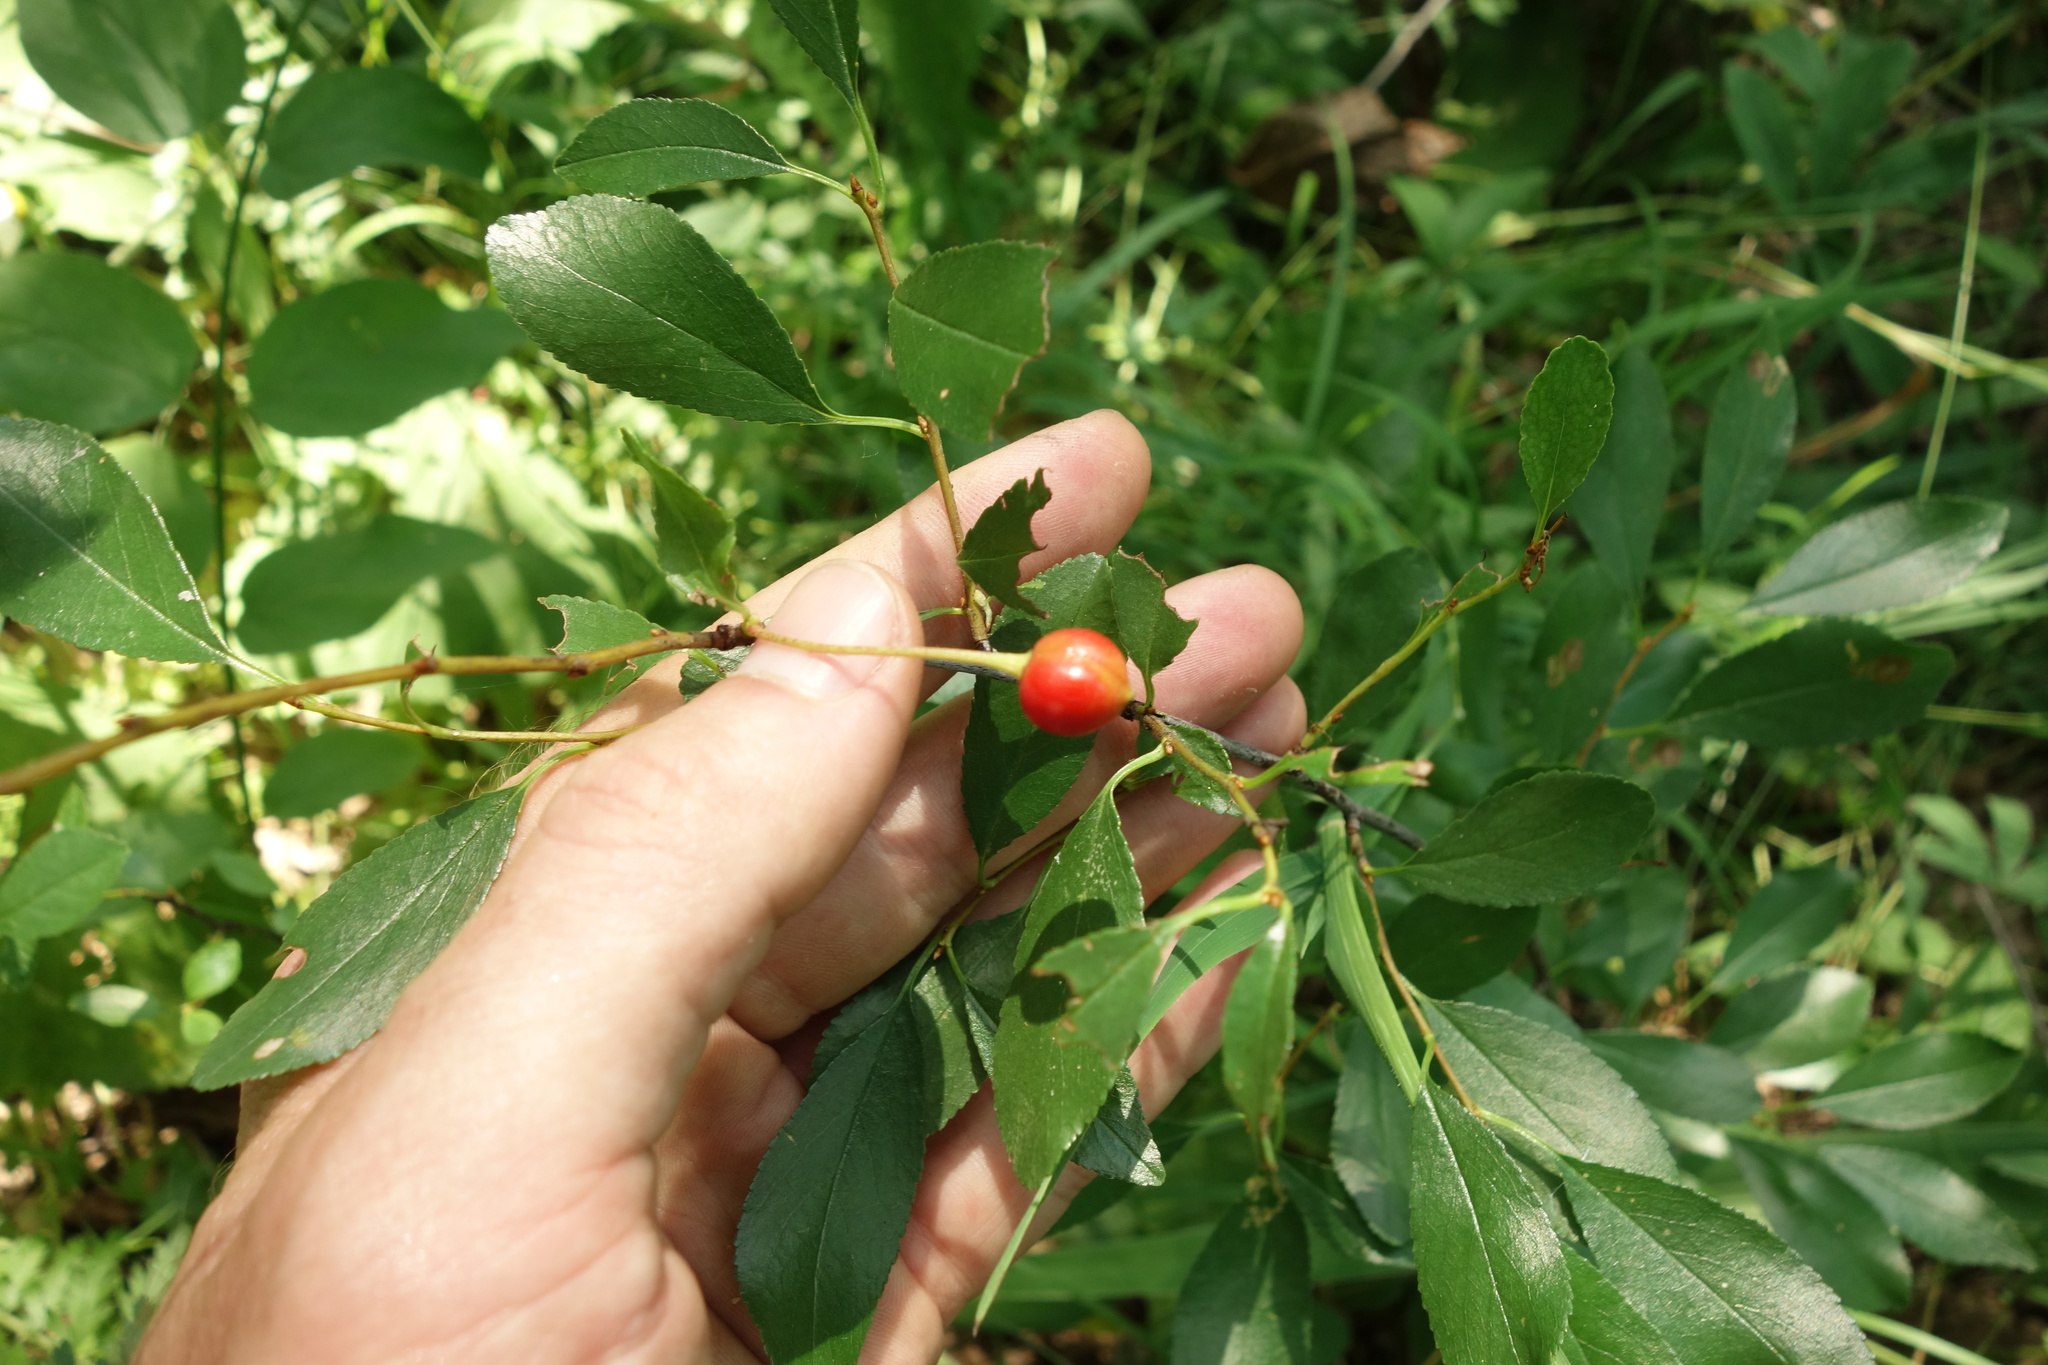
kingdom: Plantae
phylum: Tracheophyta
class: Magnoliopsida
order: Rosales
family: Rosaceae
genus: Prunus
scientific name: Prunus fruticosa
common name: European dwarf cherry
